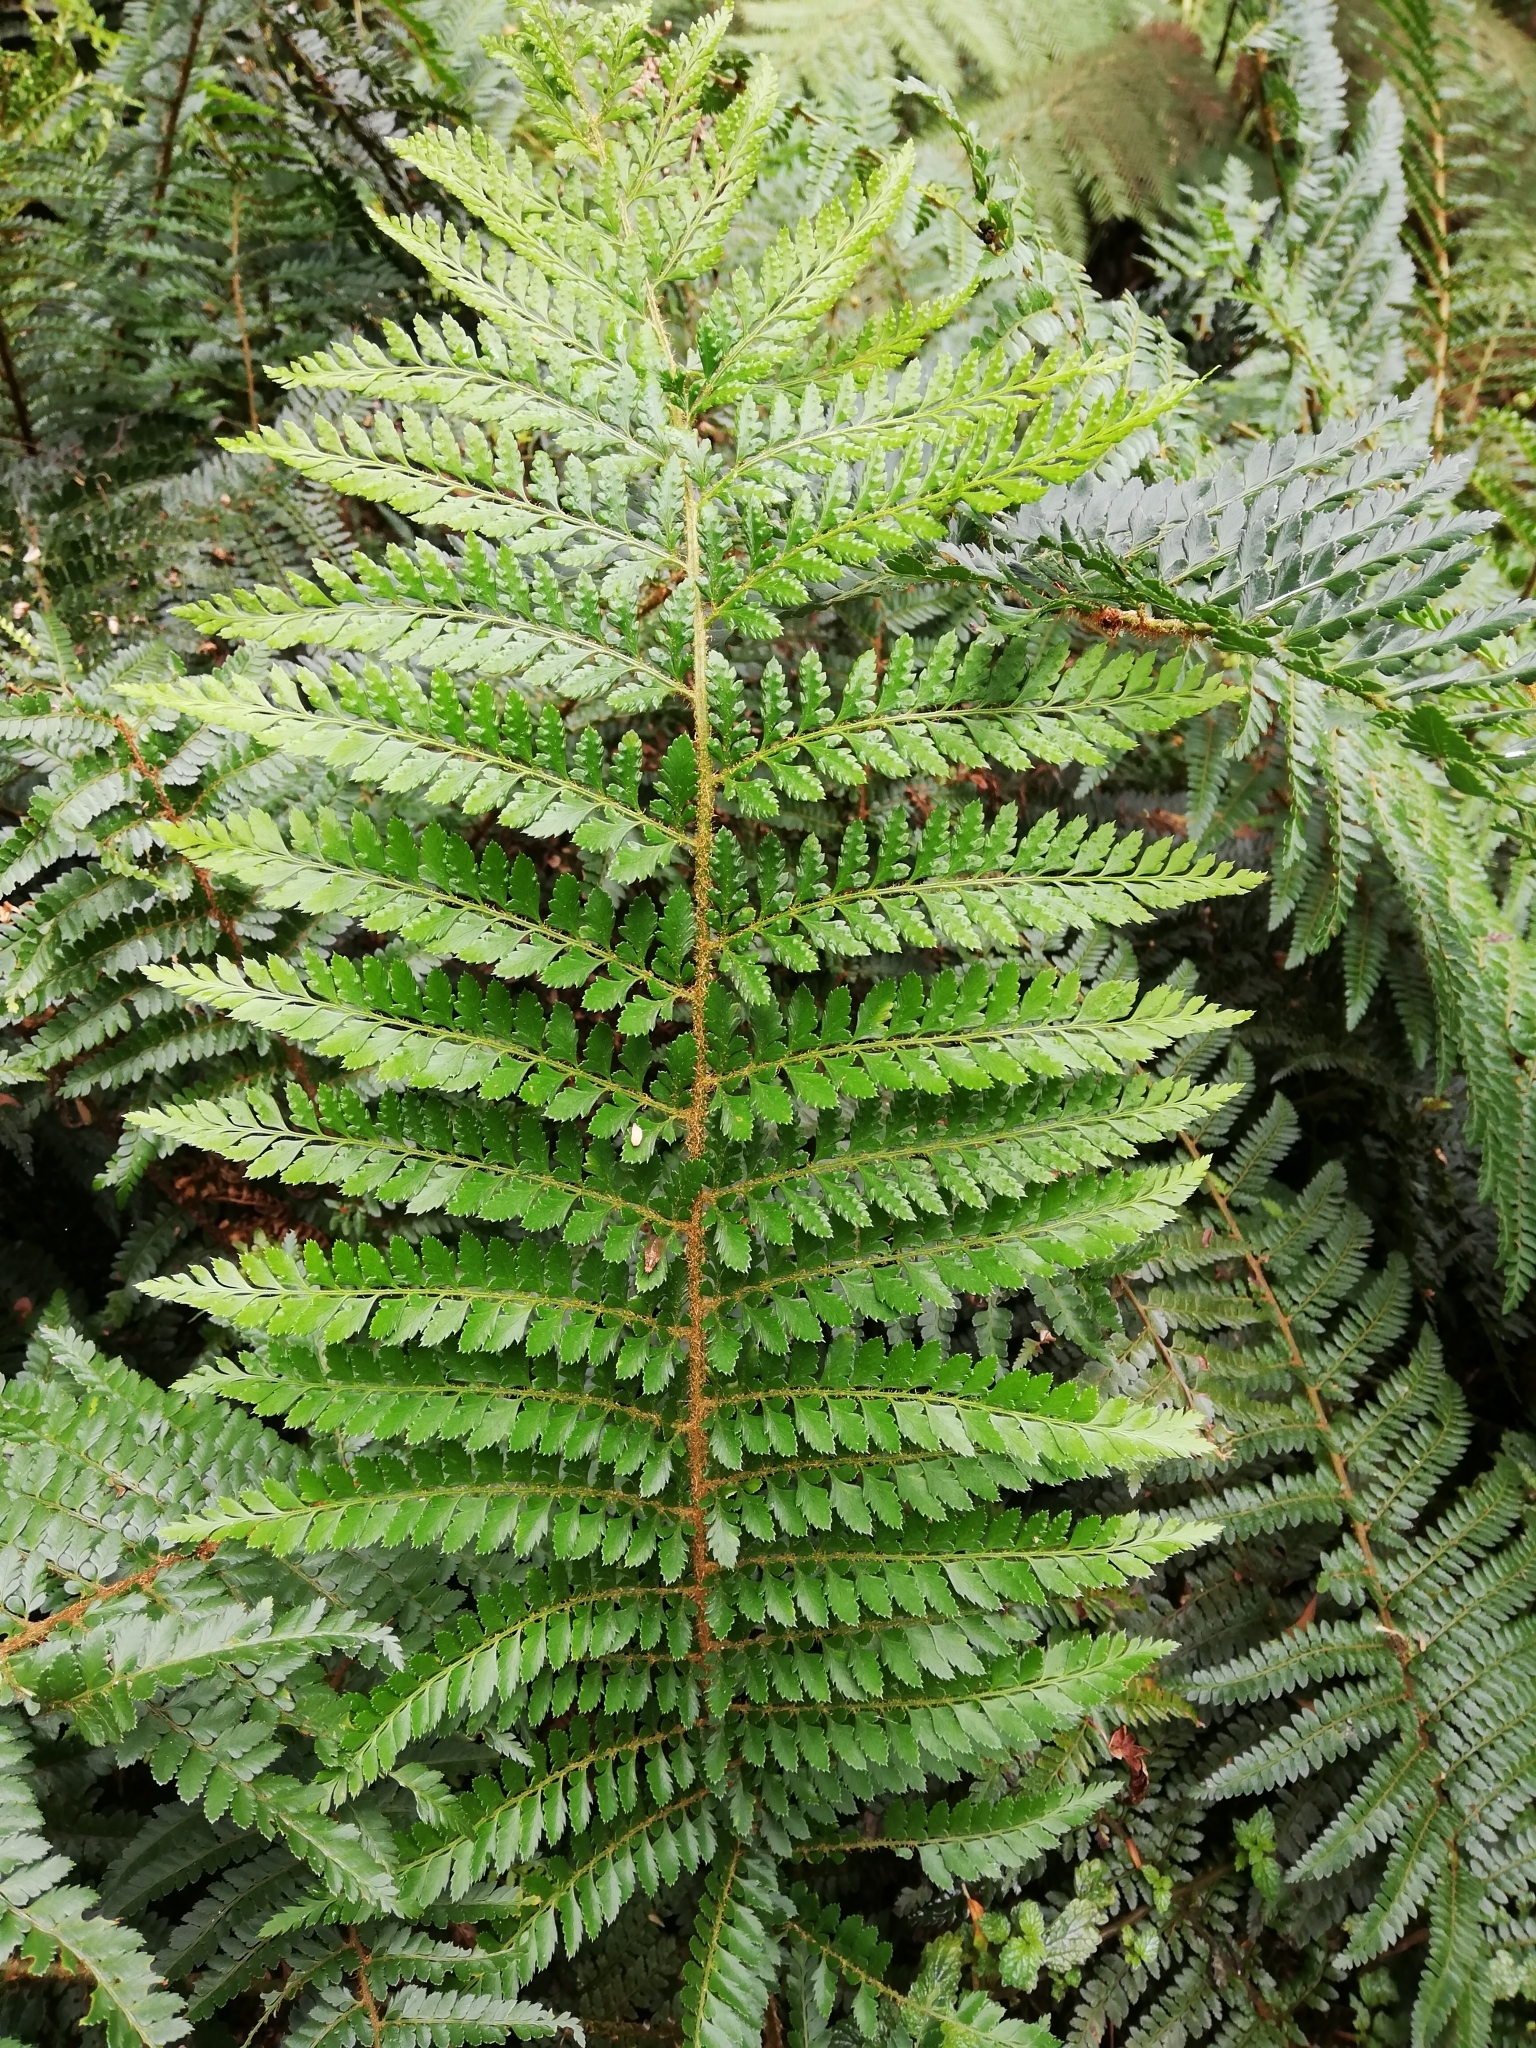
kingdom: Plantae
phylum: Tracheophyta
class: Polypodiopsida
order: Polypodiales
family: Dryopteridaceae
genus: Polystichum
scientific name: Polystichum proliferum
